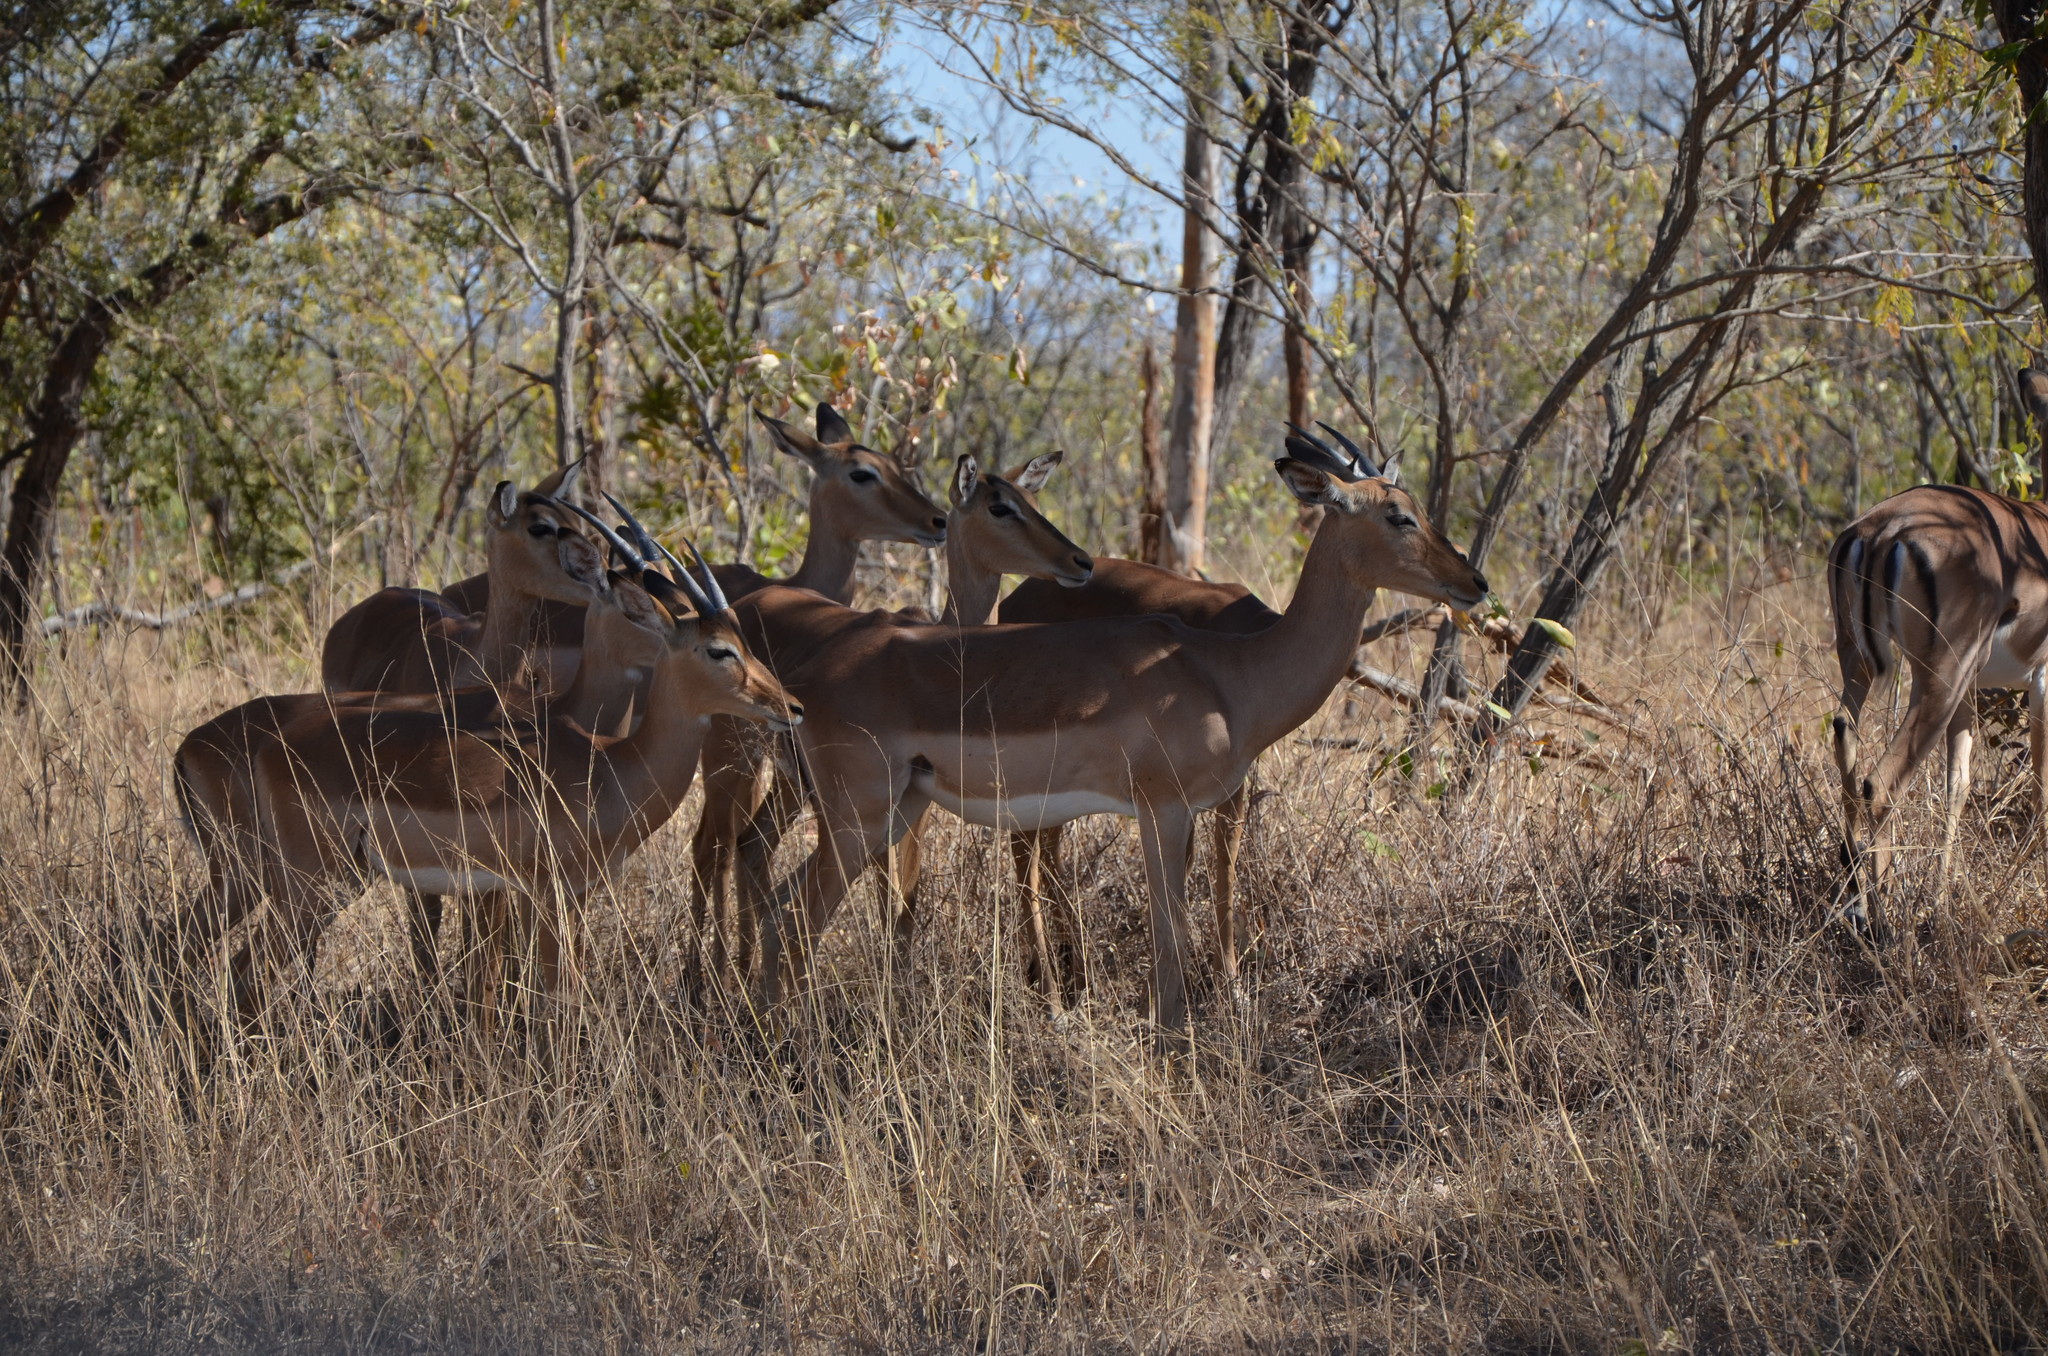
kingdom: Animalia
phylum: Chordata
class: Mammalia
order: Artiodactyla
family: Bovidae
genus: Aepyceros
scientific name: Aepyceros melampus
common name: Impala
